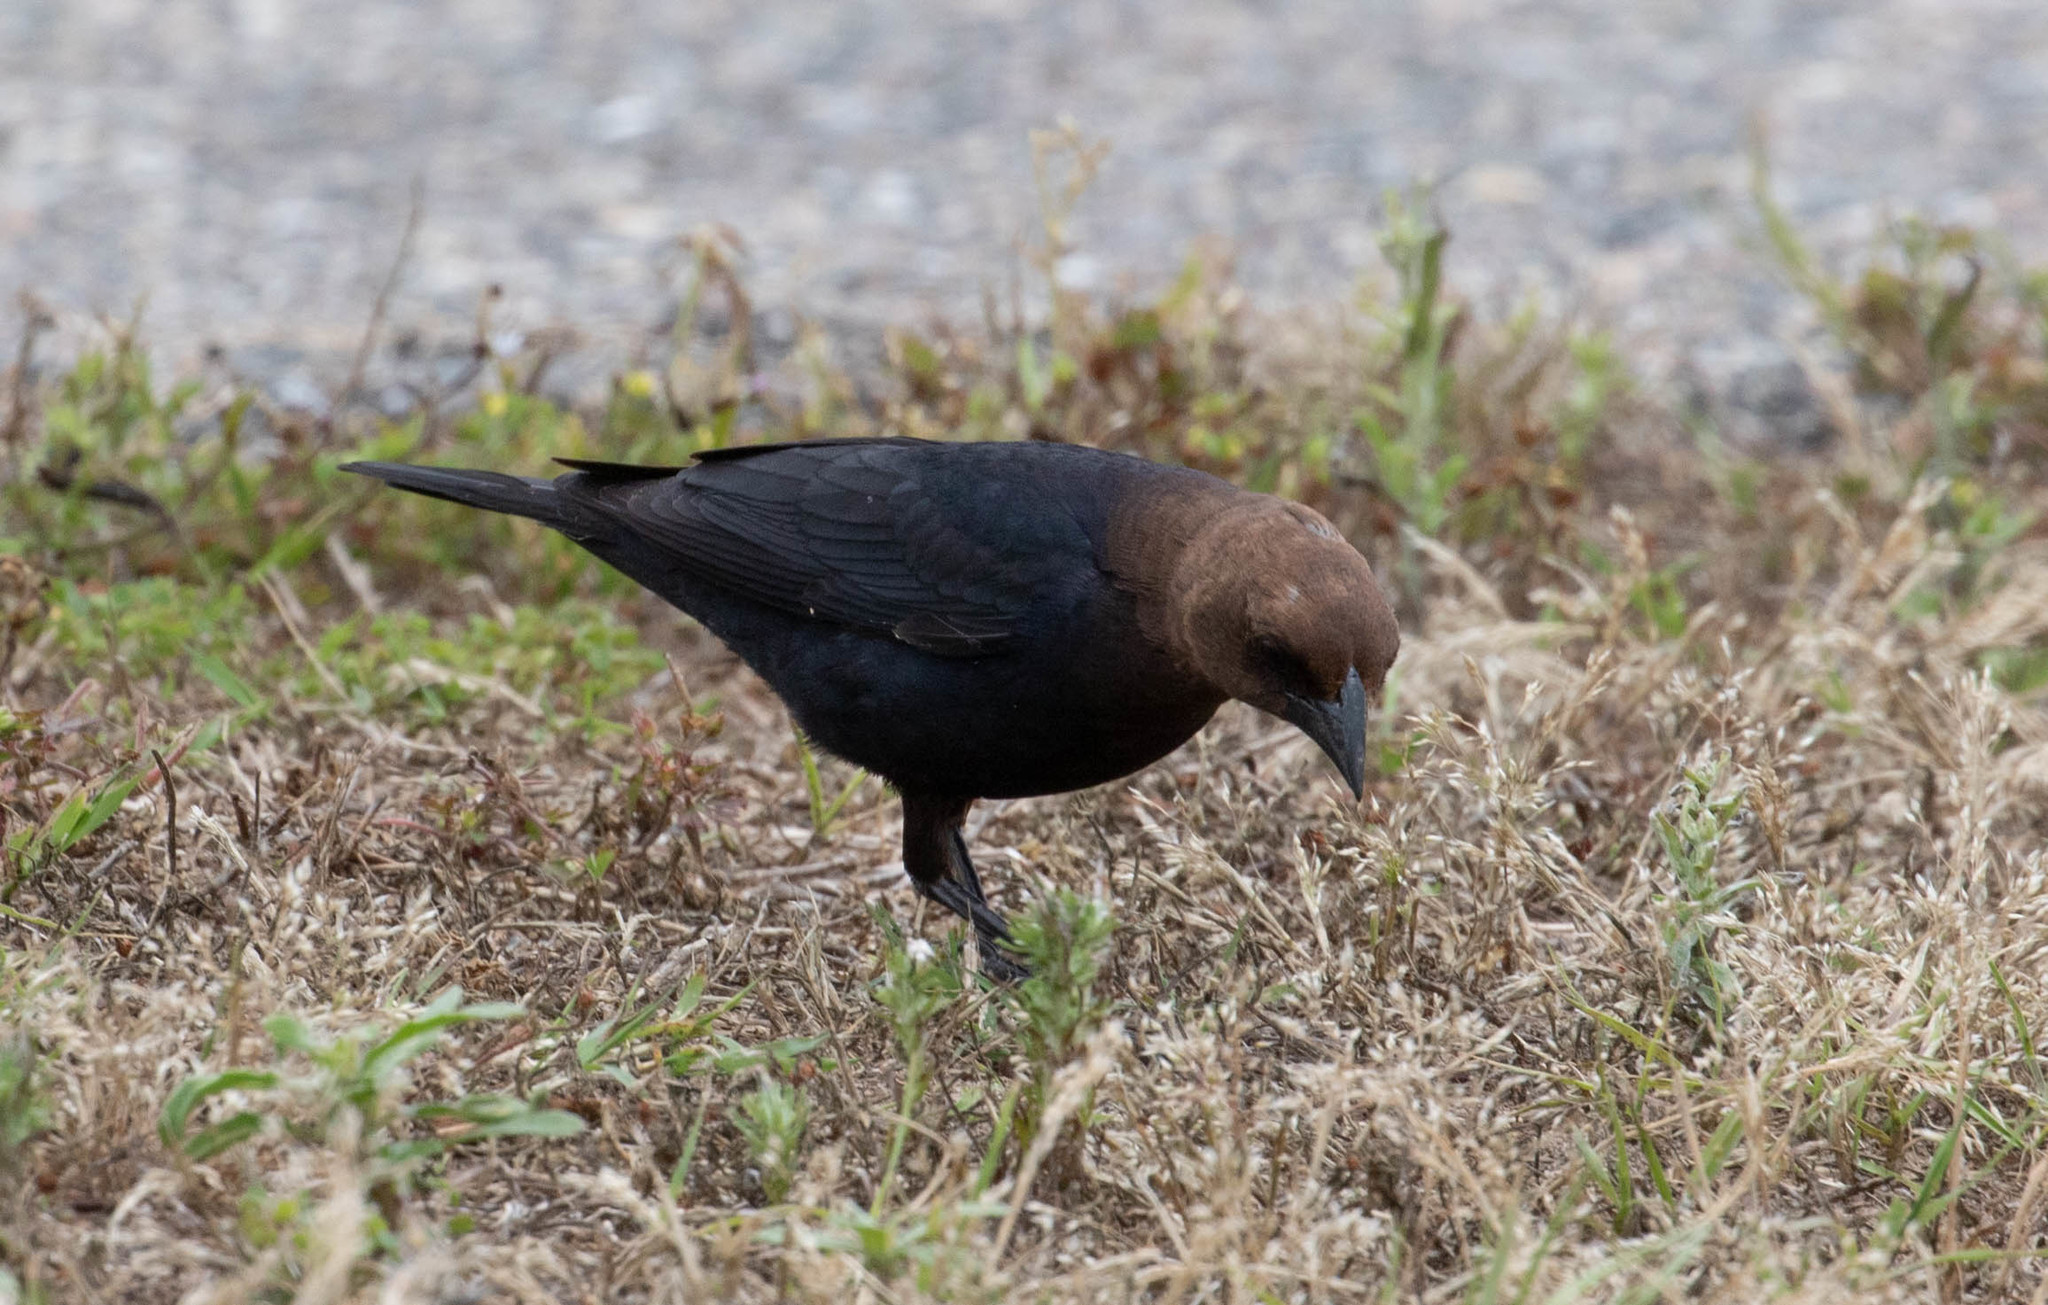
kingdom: Animalia
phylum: Chordata
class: Aves
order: Passeriformes
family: Icteridae
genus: Molothrus
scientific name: Molothrus ater
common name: Brown-headed cowbird
